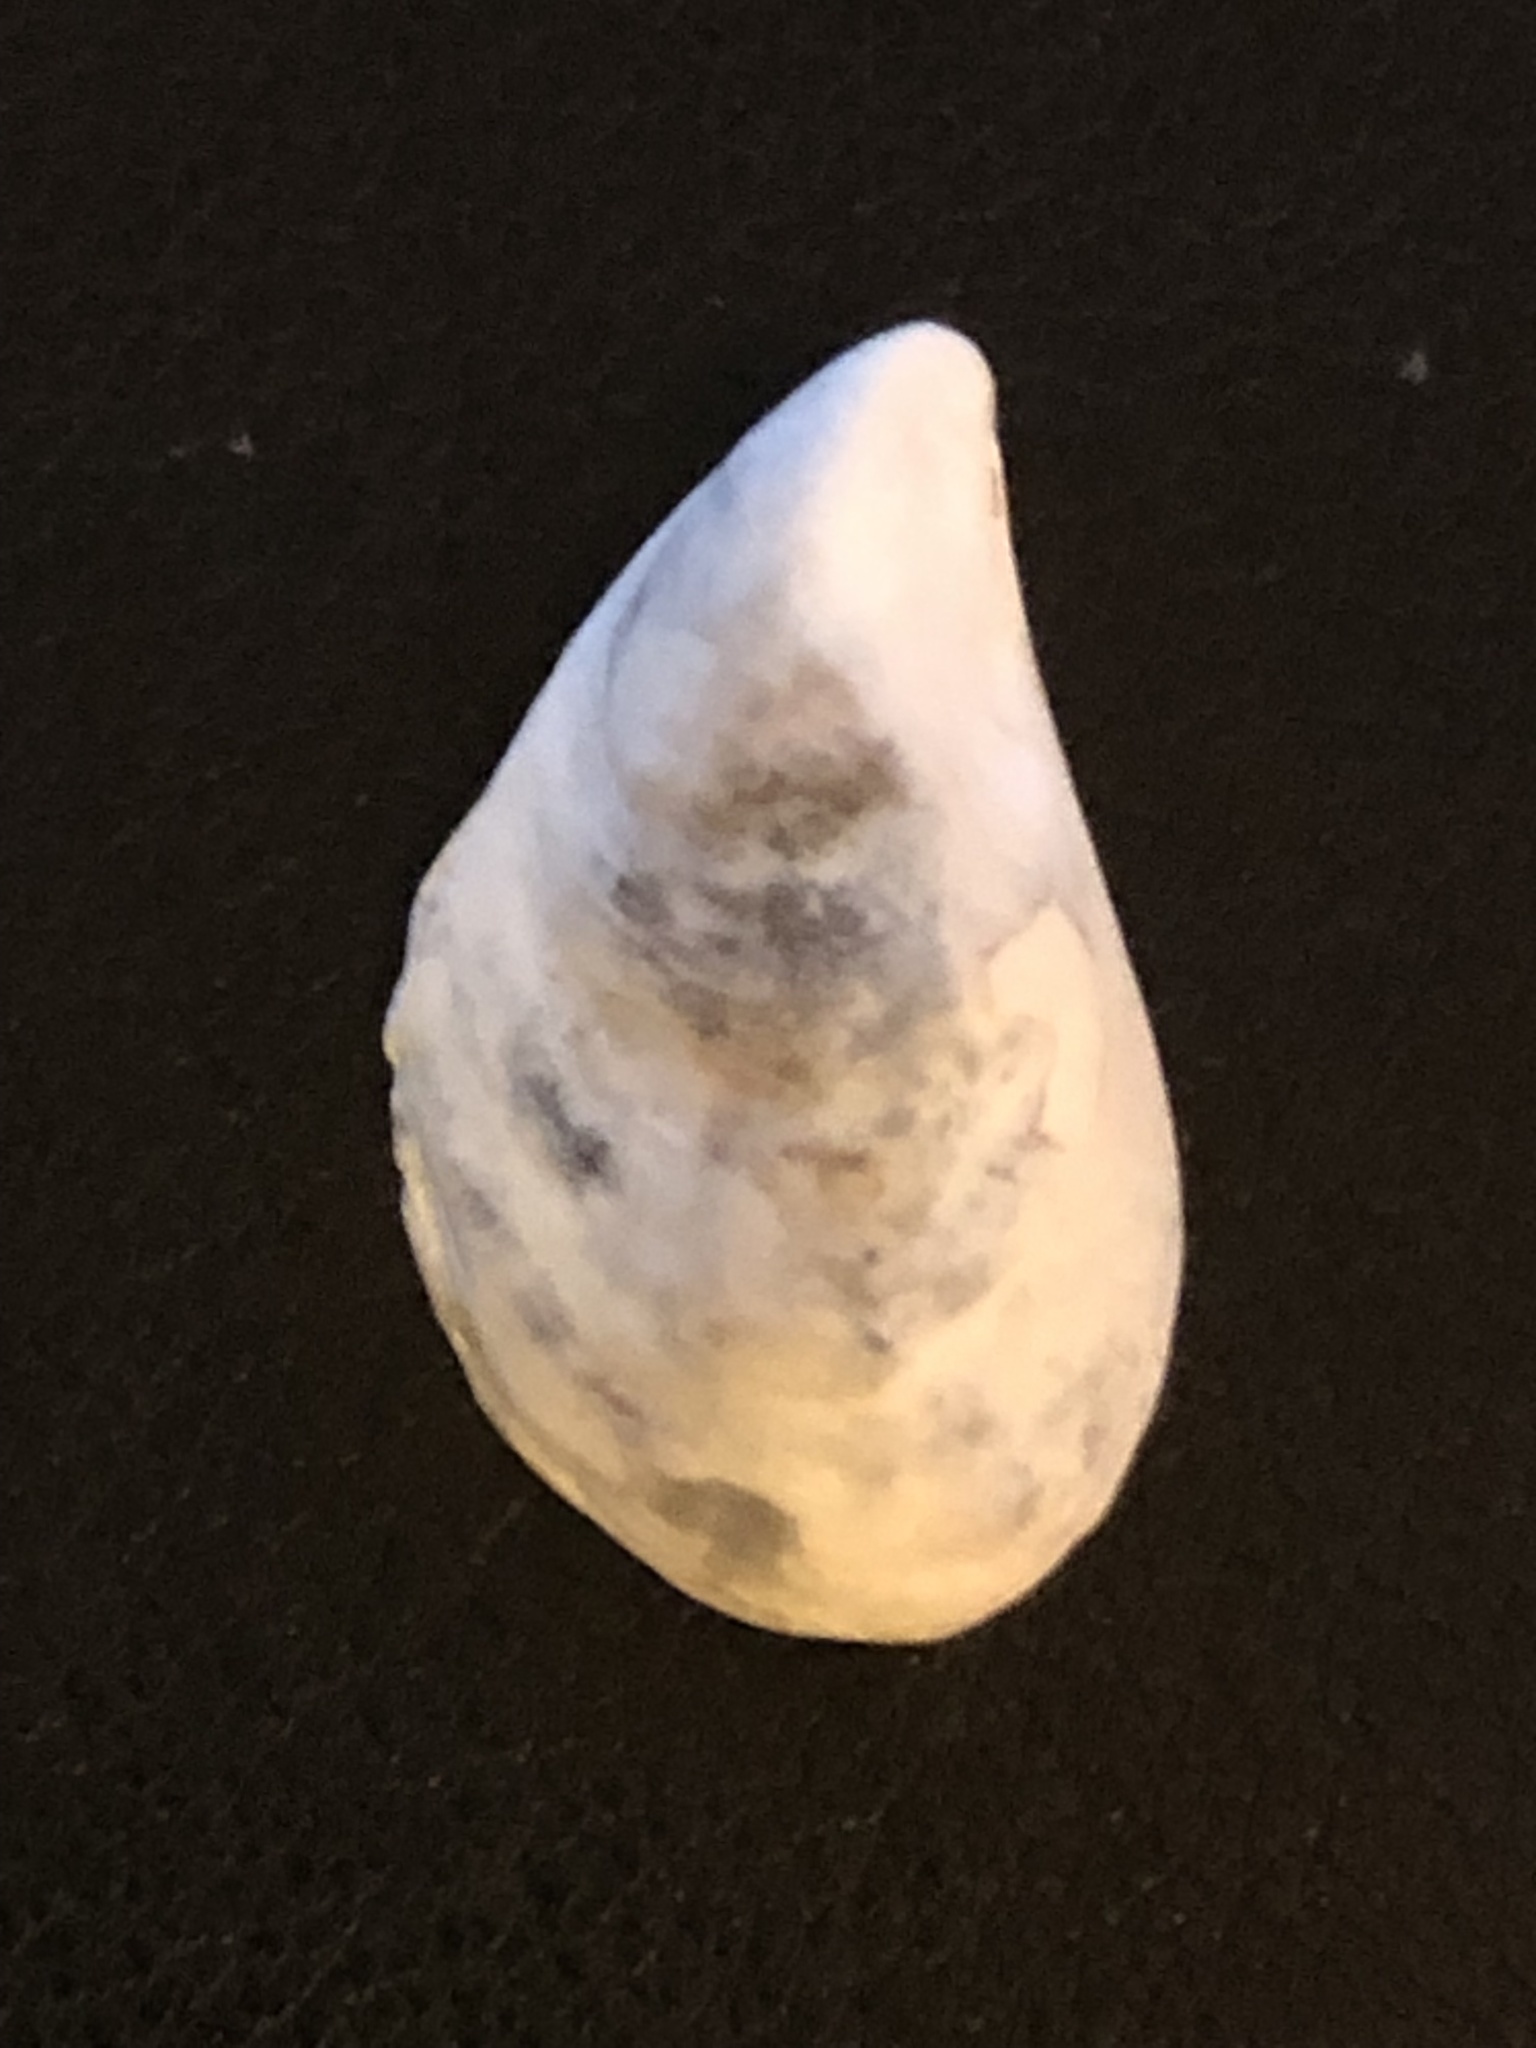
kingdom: Animalia
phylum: Mollusca
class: Bivalvia
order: Myida
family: Dreissenidae
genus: Dreissena
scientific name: Dreissena bugensis
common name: Quagga mussel
